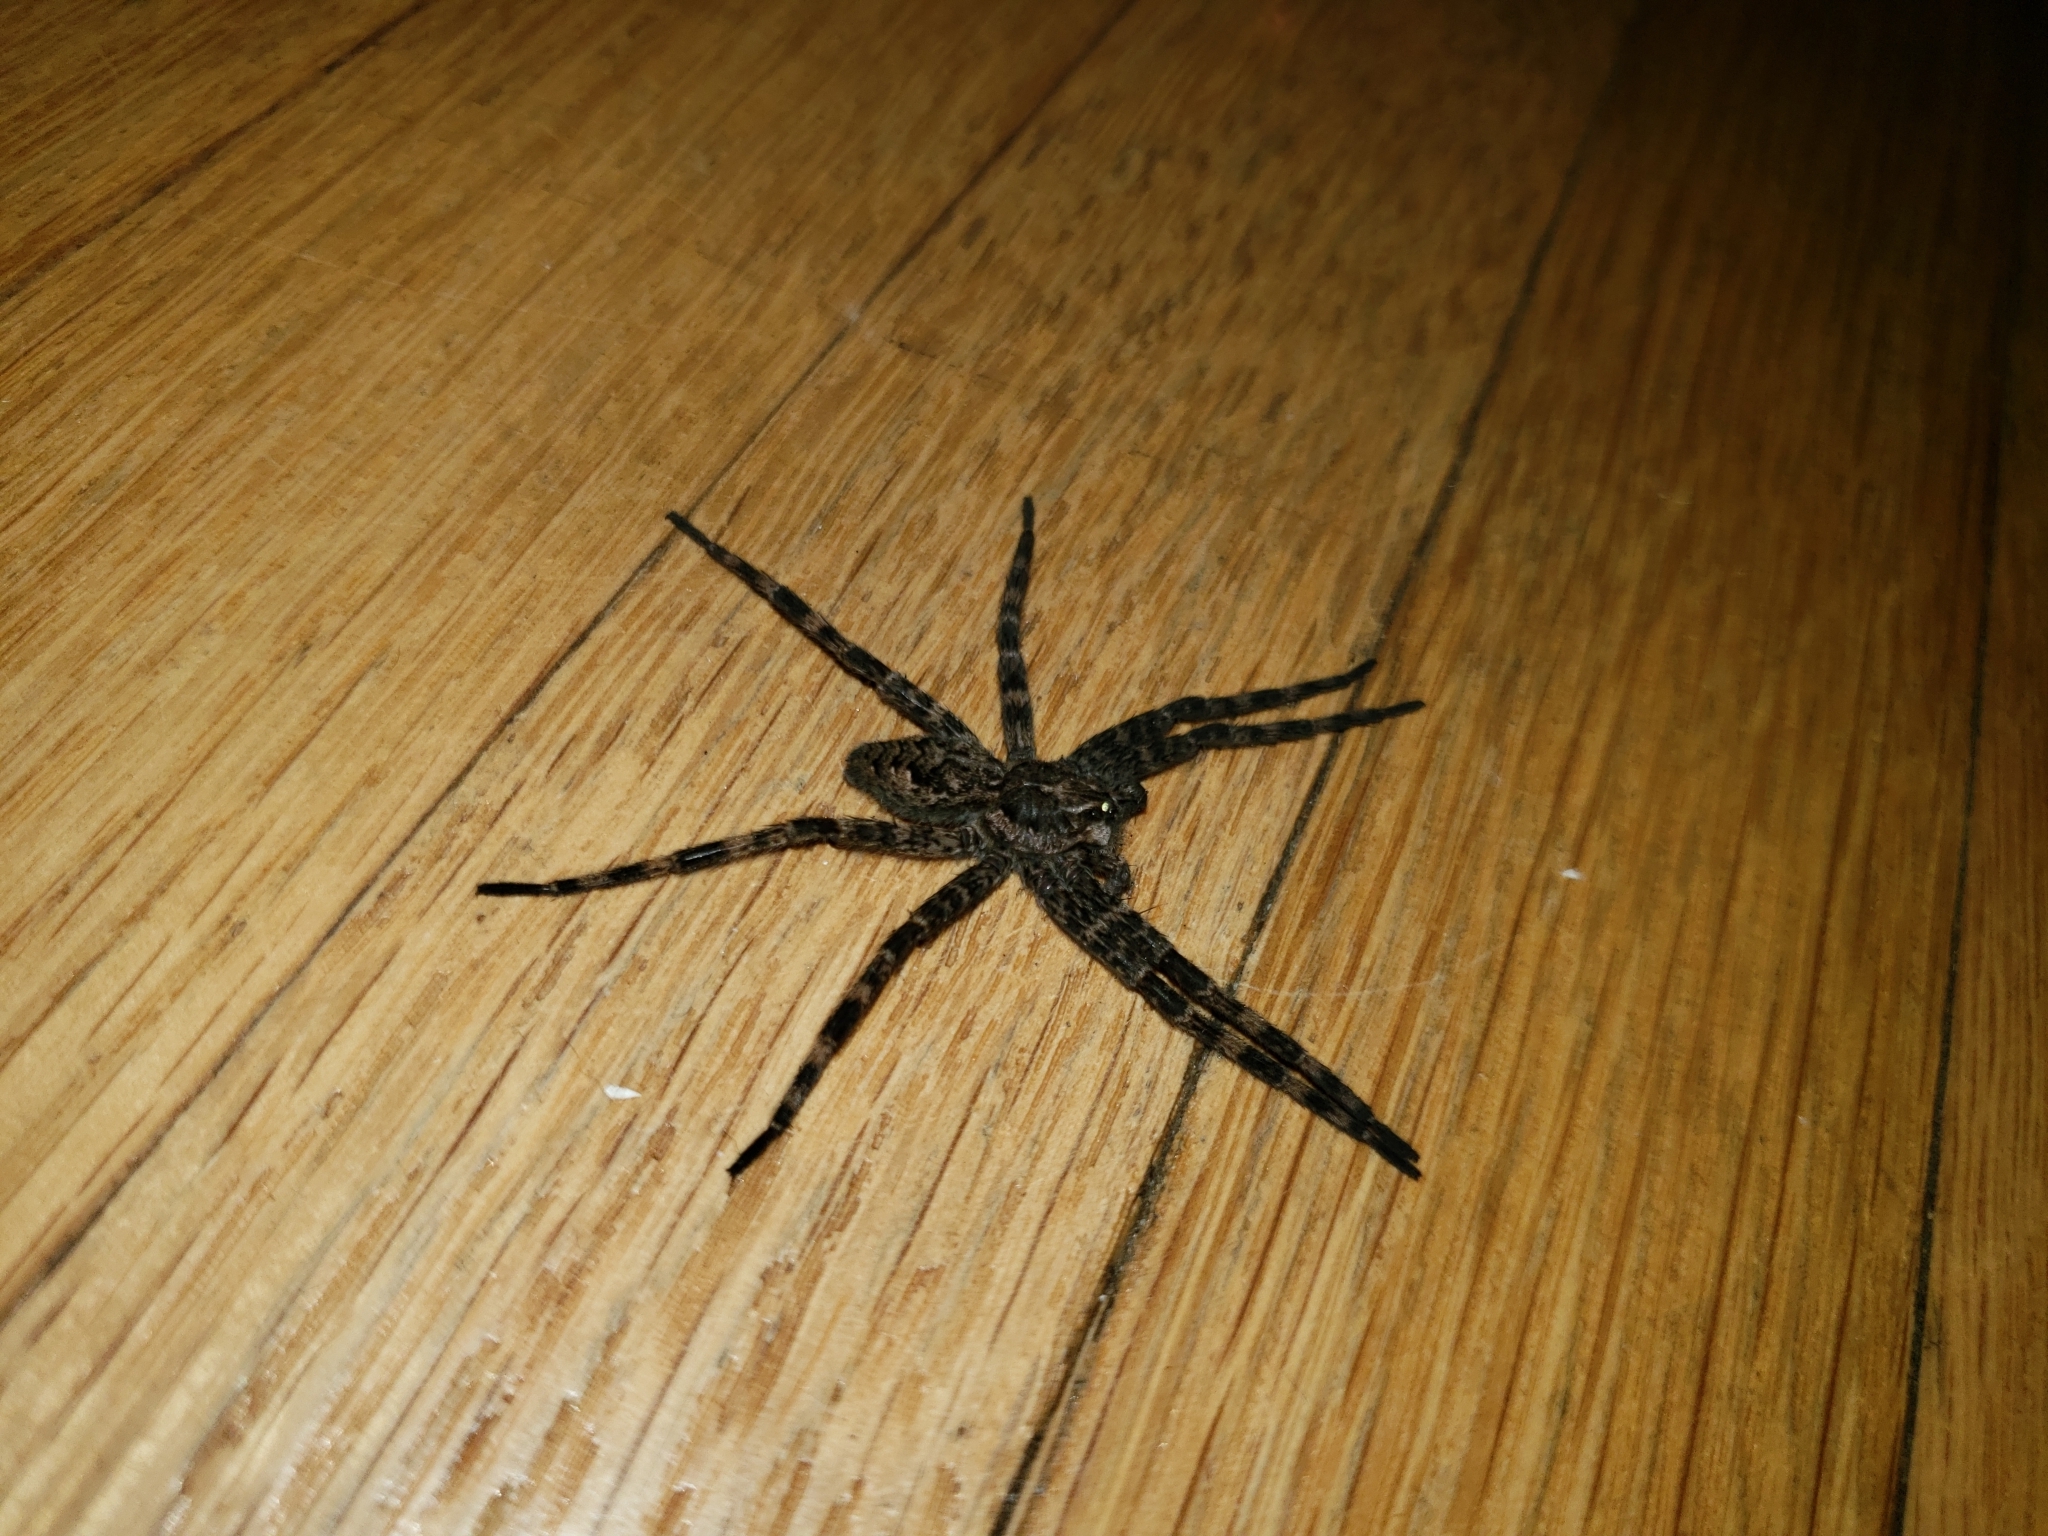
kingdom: Animalia
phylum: Arthropoda
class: Arachnida
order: Araneae
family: Pisauridae
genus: Dolomedes
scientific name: Dolomedes tenebrosus
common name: Dark fishing spider
